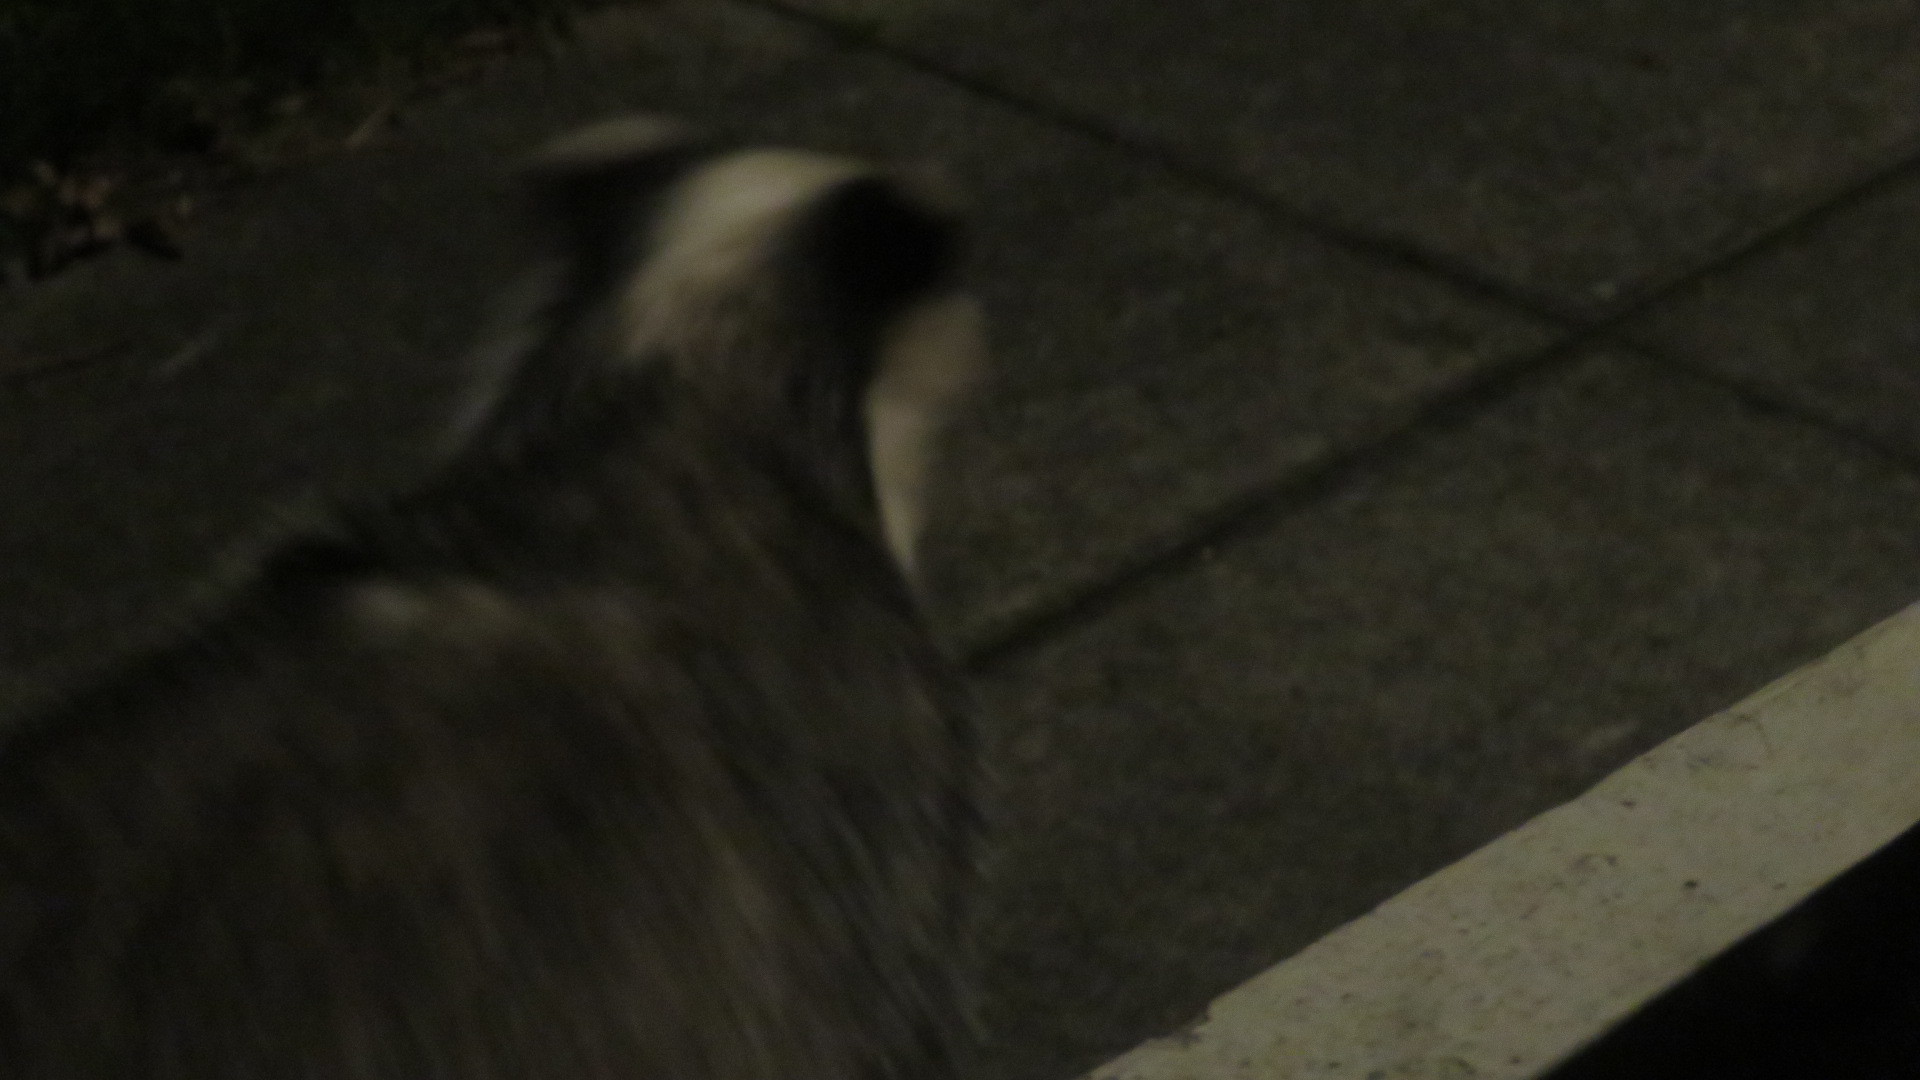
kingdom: Animalia
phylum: Chordata
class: Mammalia
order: Carnivora
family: Mustelidae
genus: Meles
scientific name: Meles meles
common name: Eurasian badger
